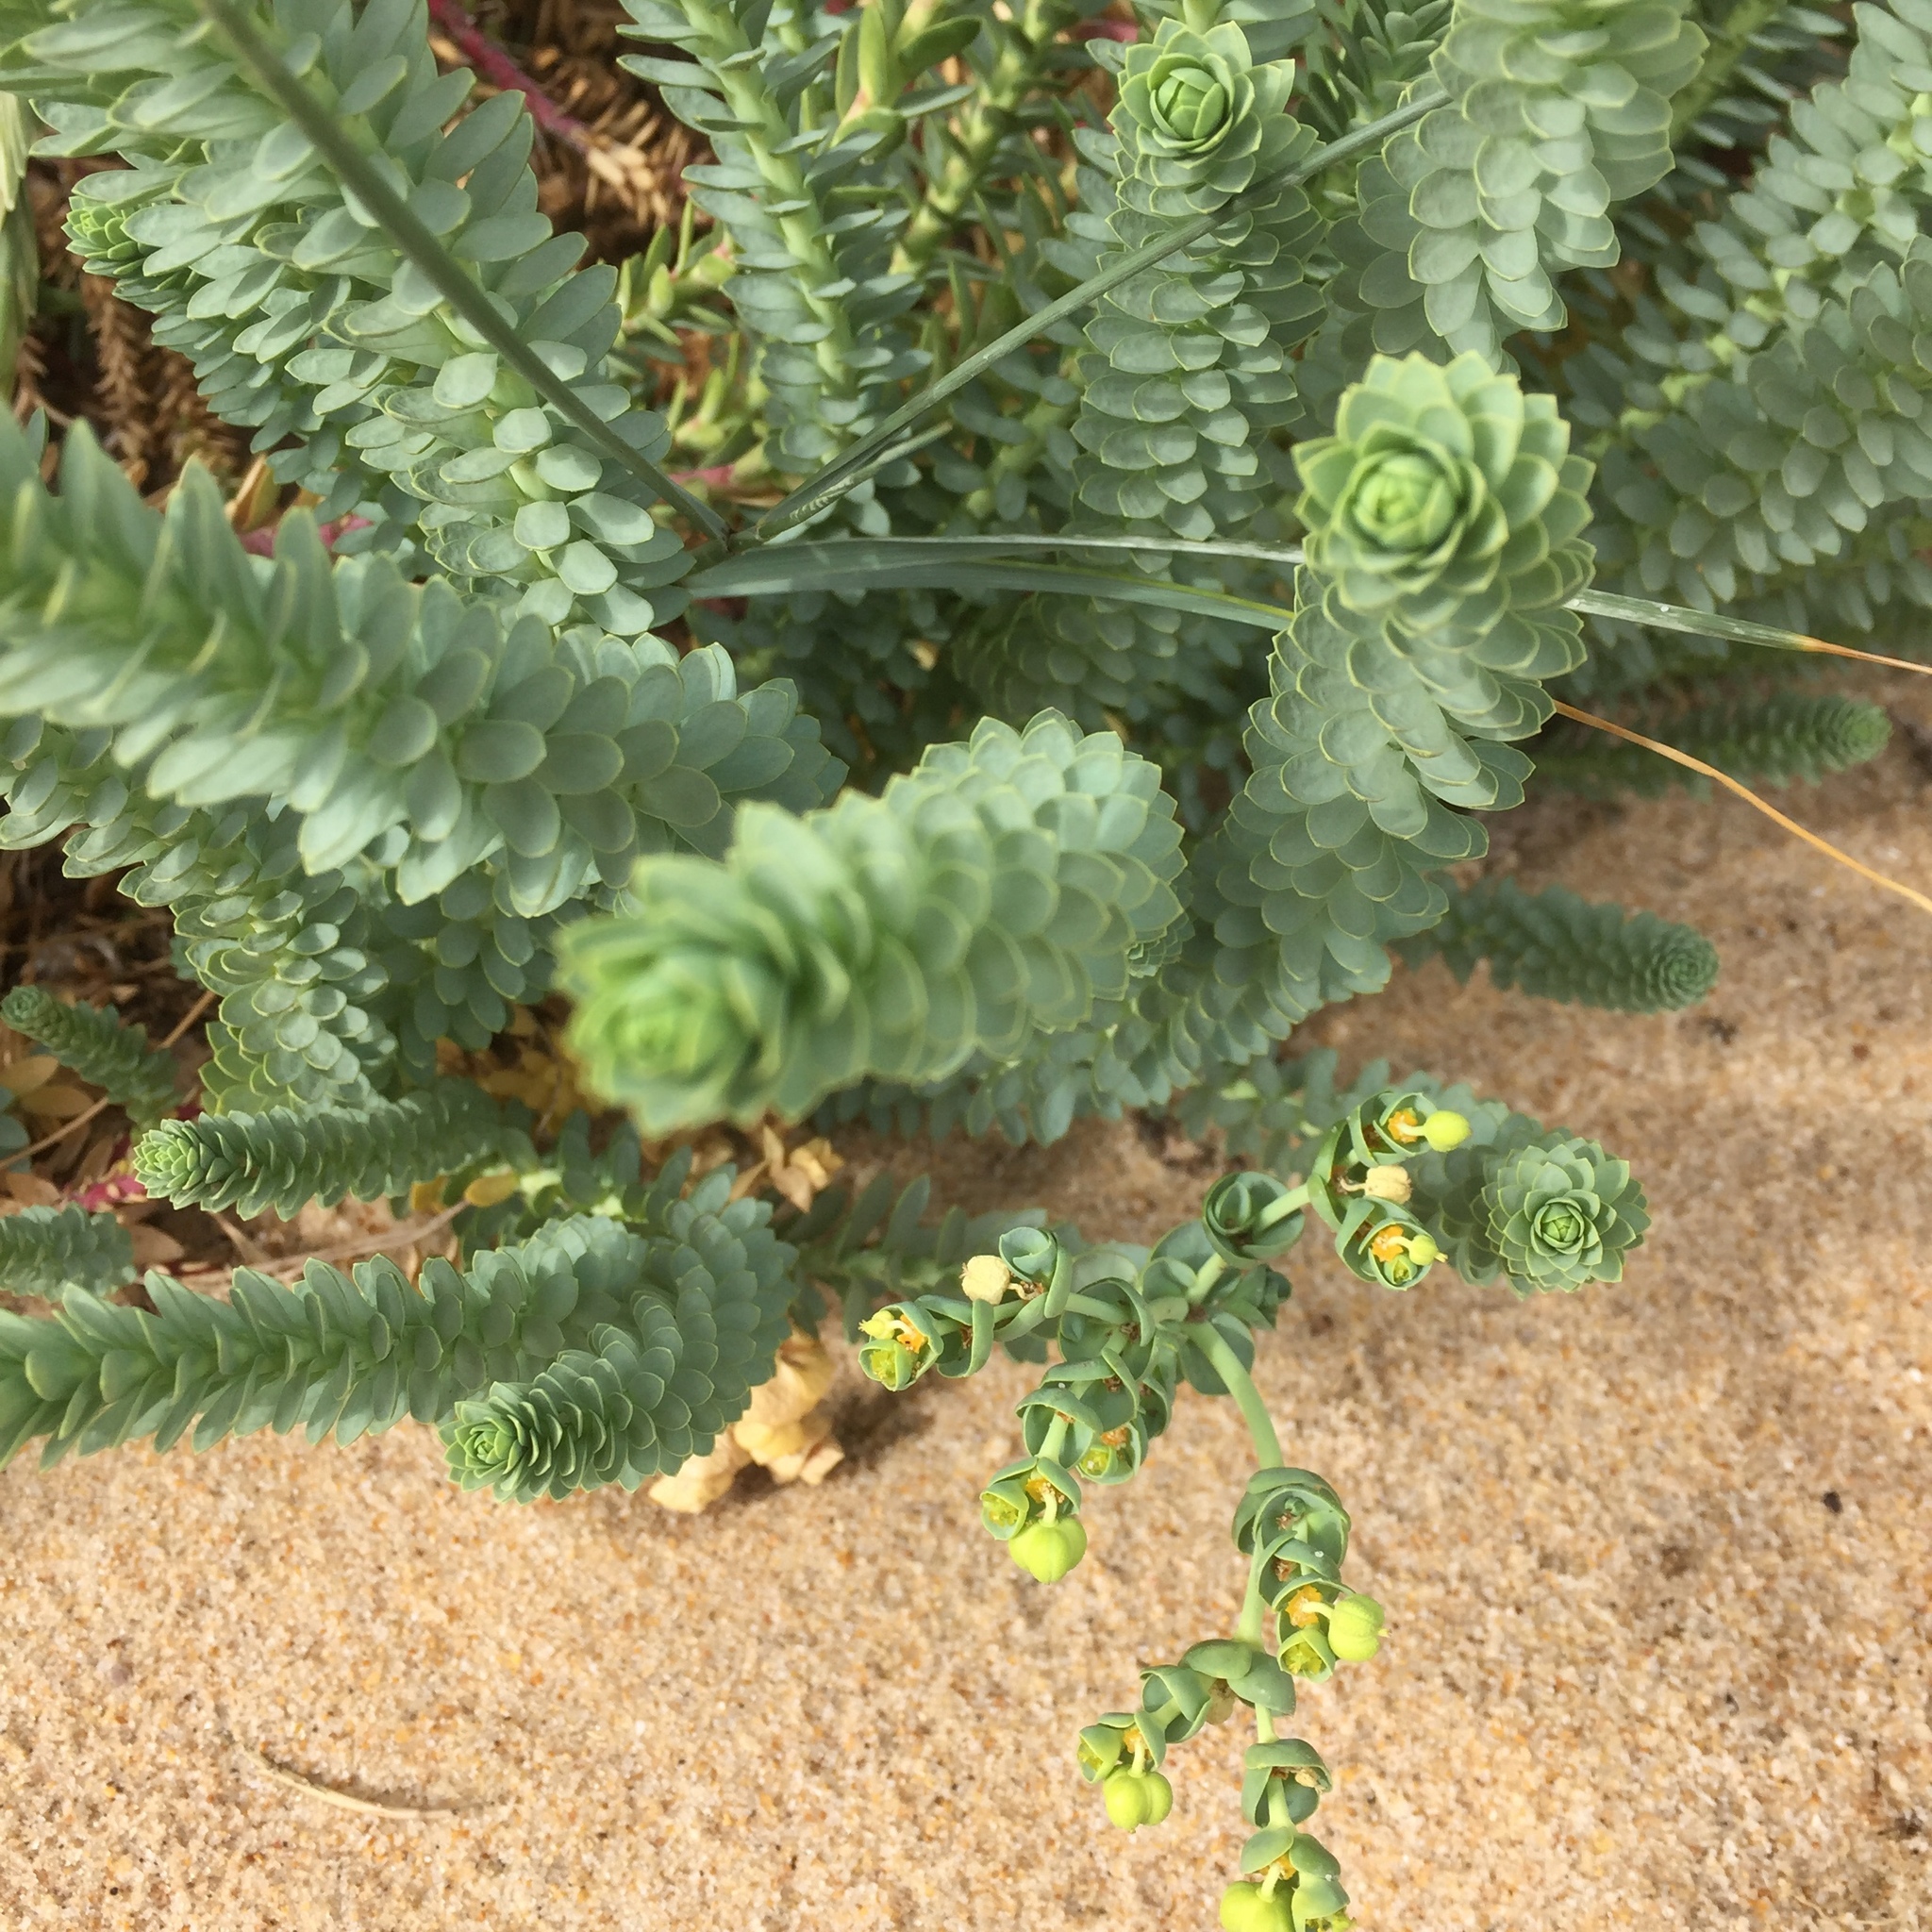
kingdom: Plantae
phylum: Tracheophyta
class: Magnoliopsida
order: Malpighiales
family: Euphorbiaceae
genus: Euphorbia
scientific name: Euphorbia paralias
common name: Sea spurge
